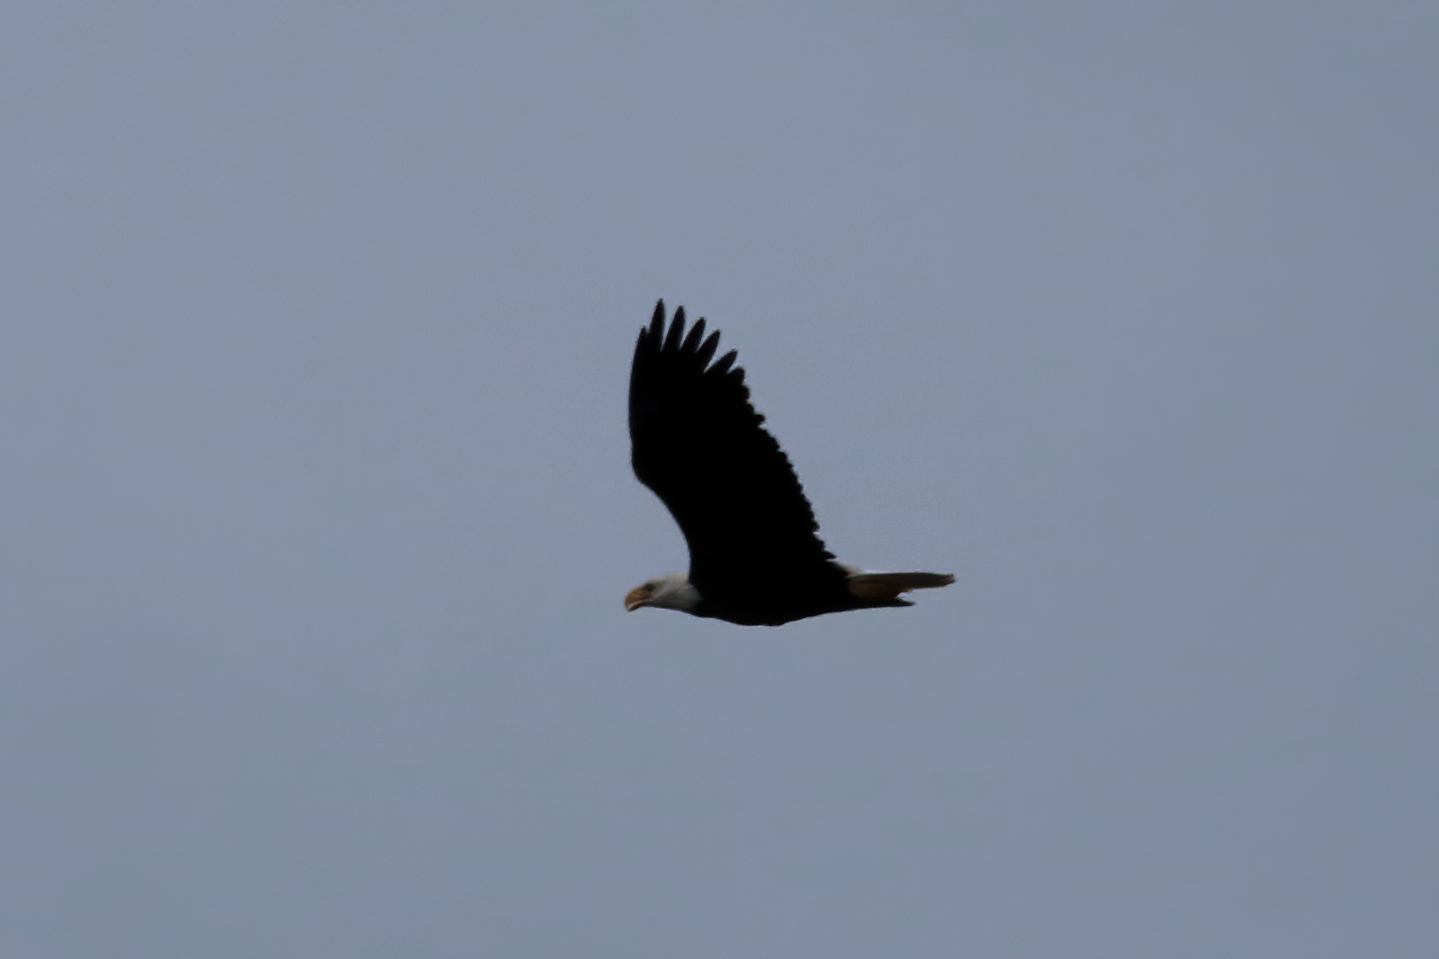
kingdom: Animalia
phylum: Chordata
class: Aves
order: Accipitriformes
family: Accipitridae
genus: Haliaeetus
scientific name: Haliaeetus leucocephalus
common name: Bald eagle
